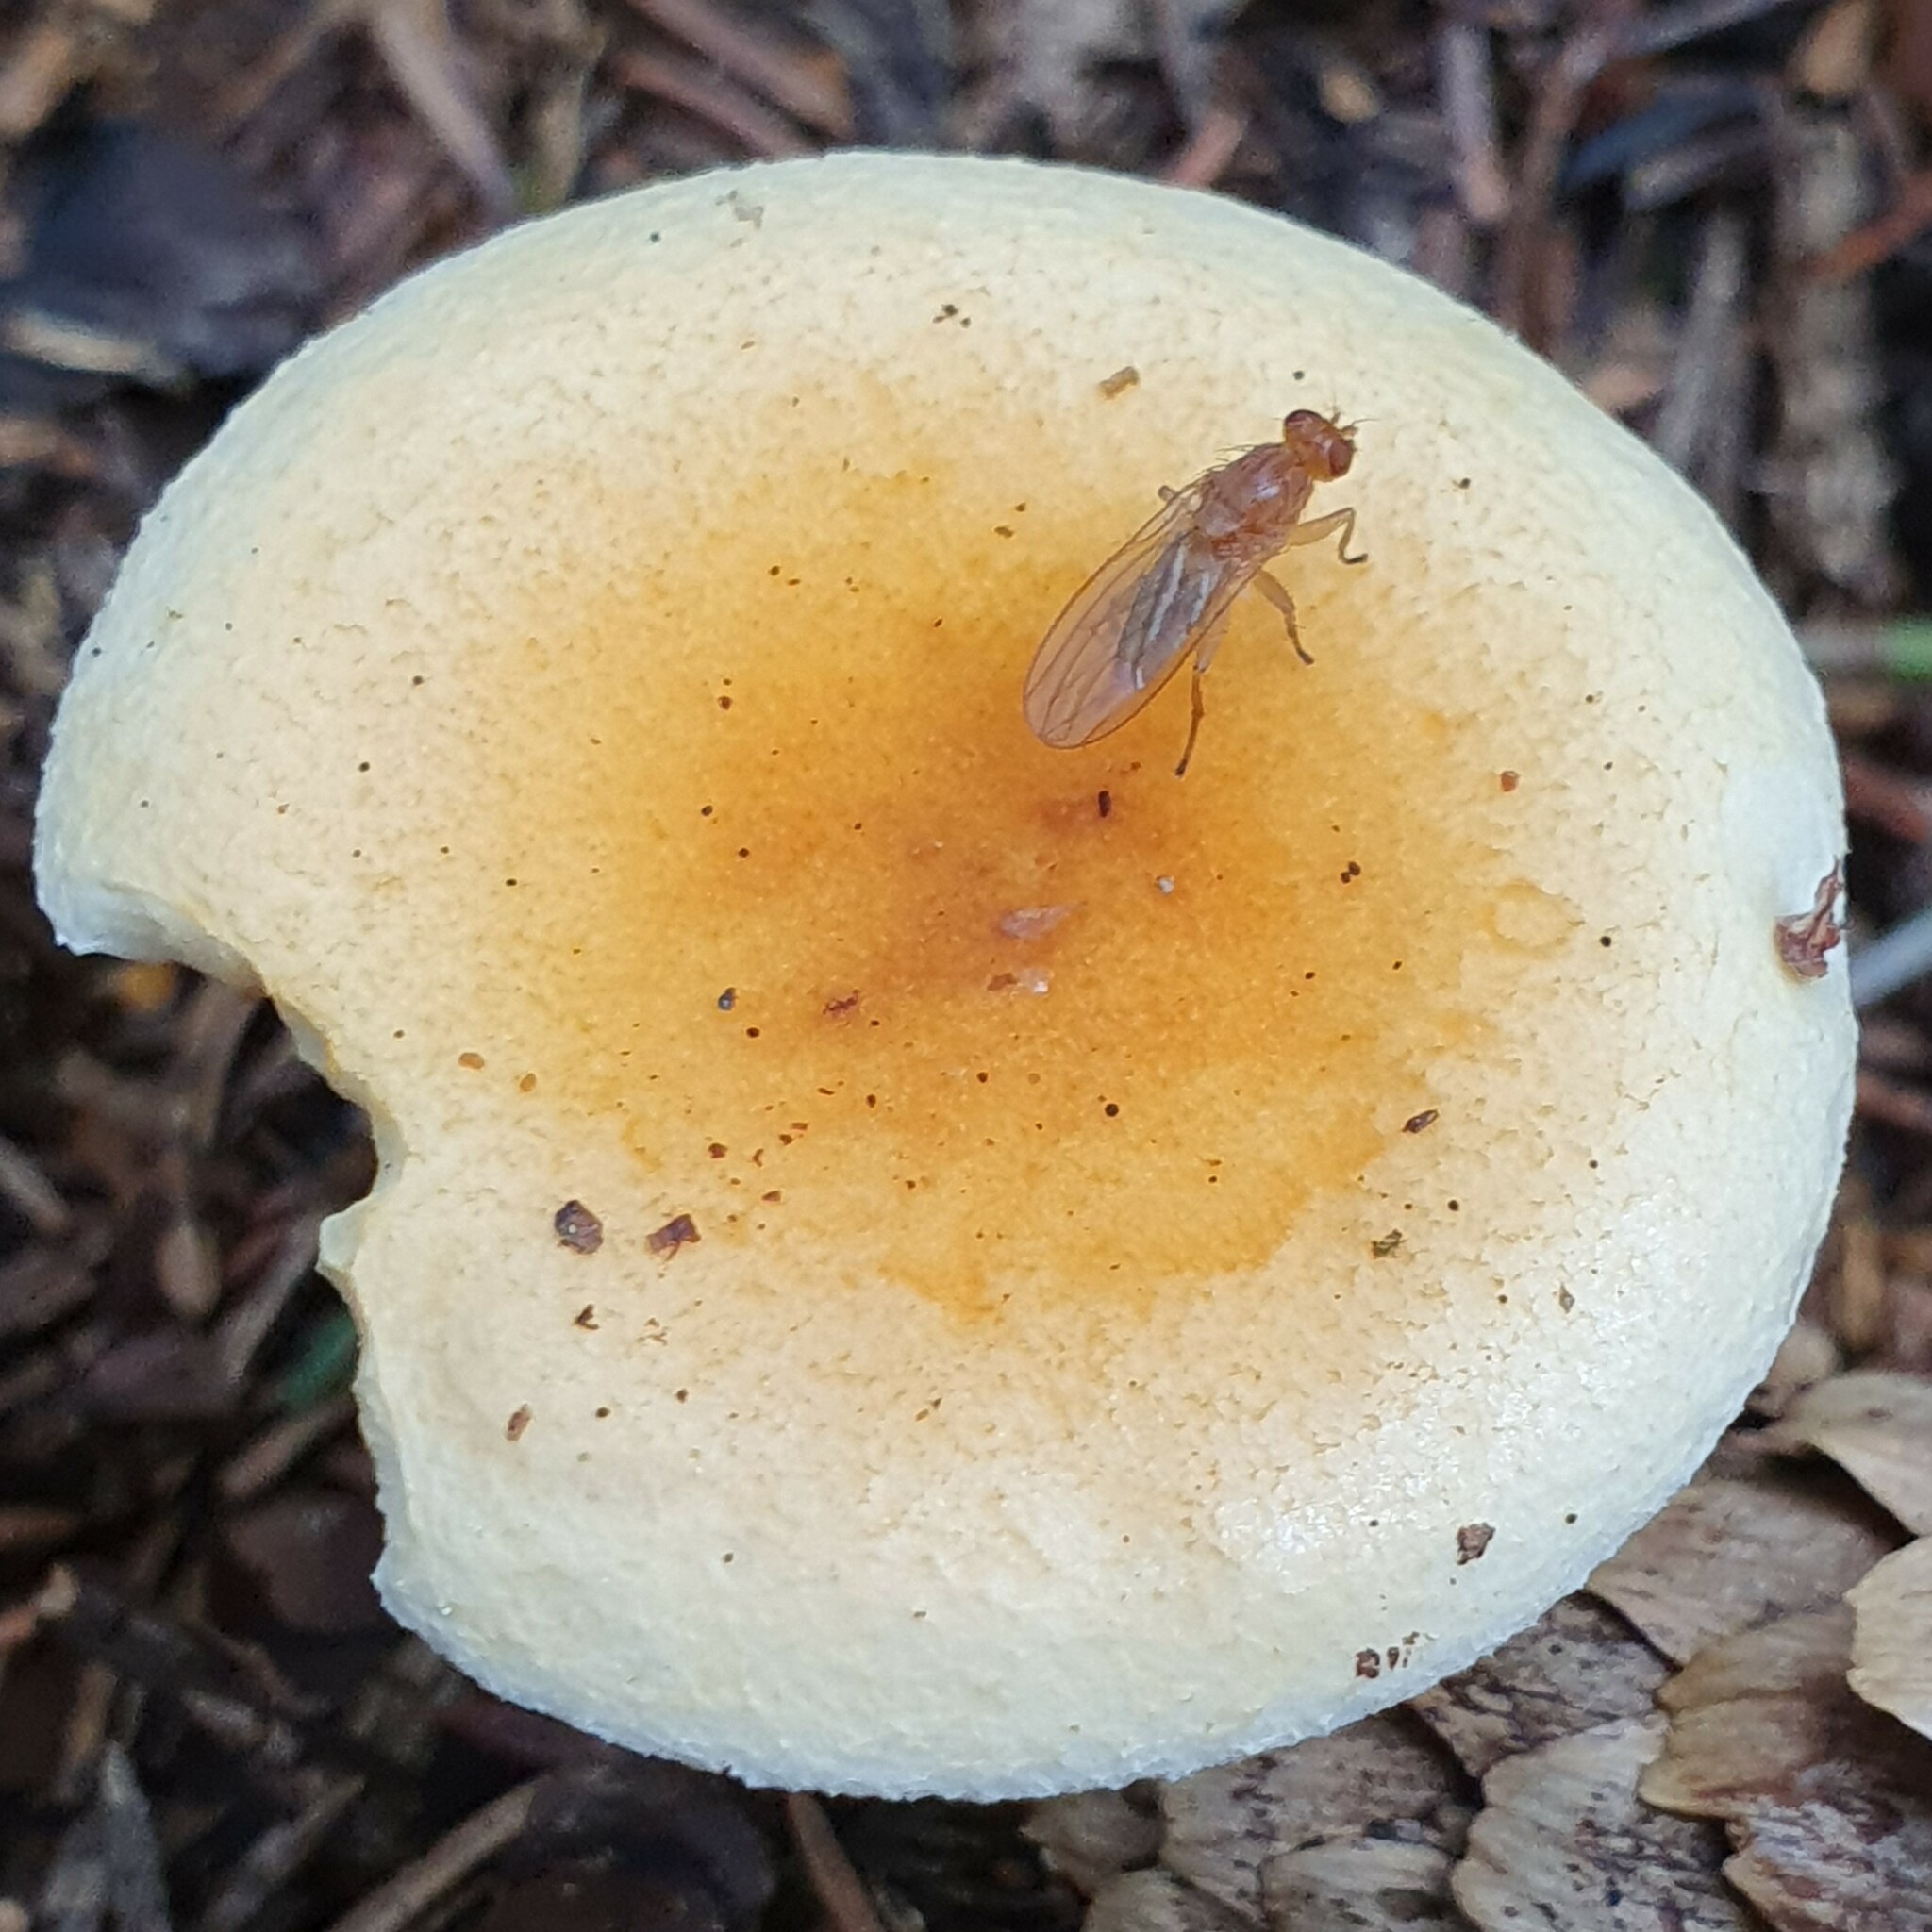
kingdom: Fungi
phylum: Basidiomycota
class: Agaricomycetes
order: Boletales
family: Hygrophoropsidaceae
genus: Hygrophoropsis
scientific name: Hygrophoropsis aurantiaca
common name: False chanterelle
